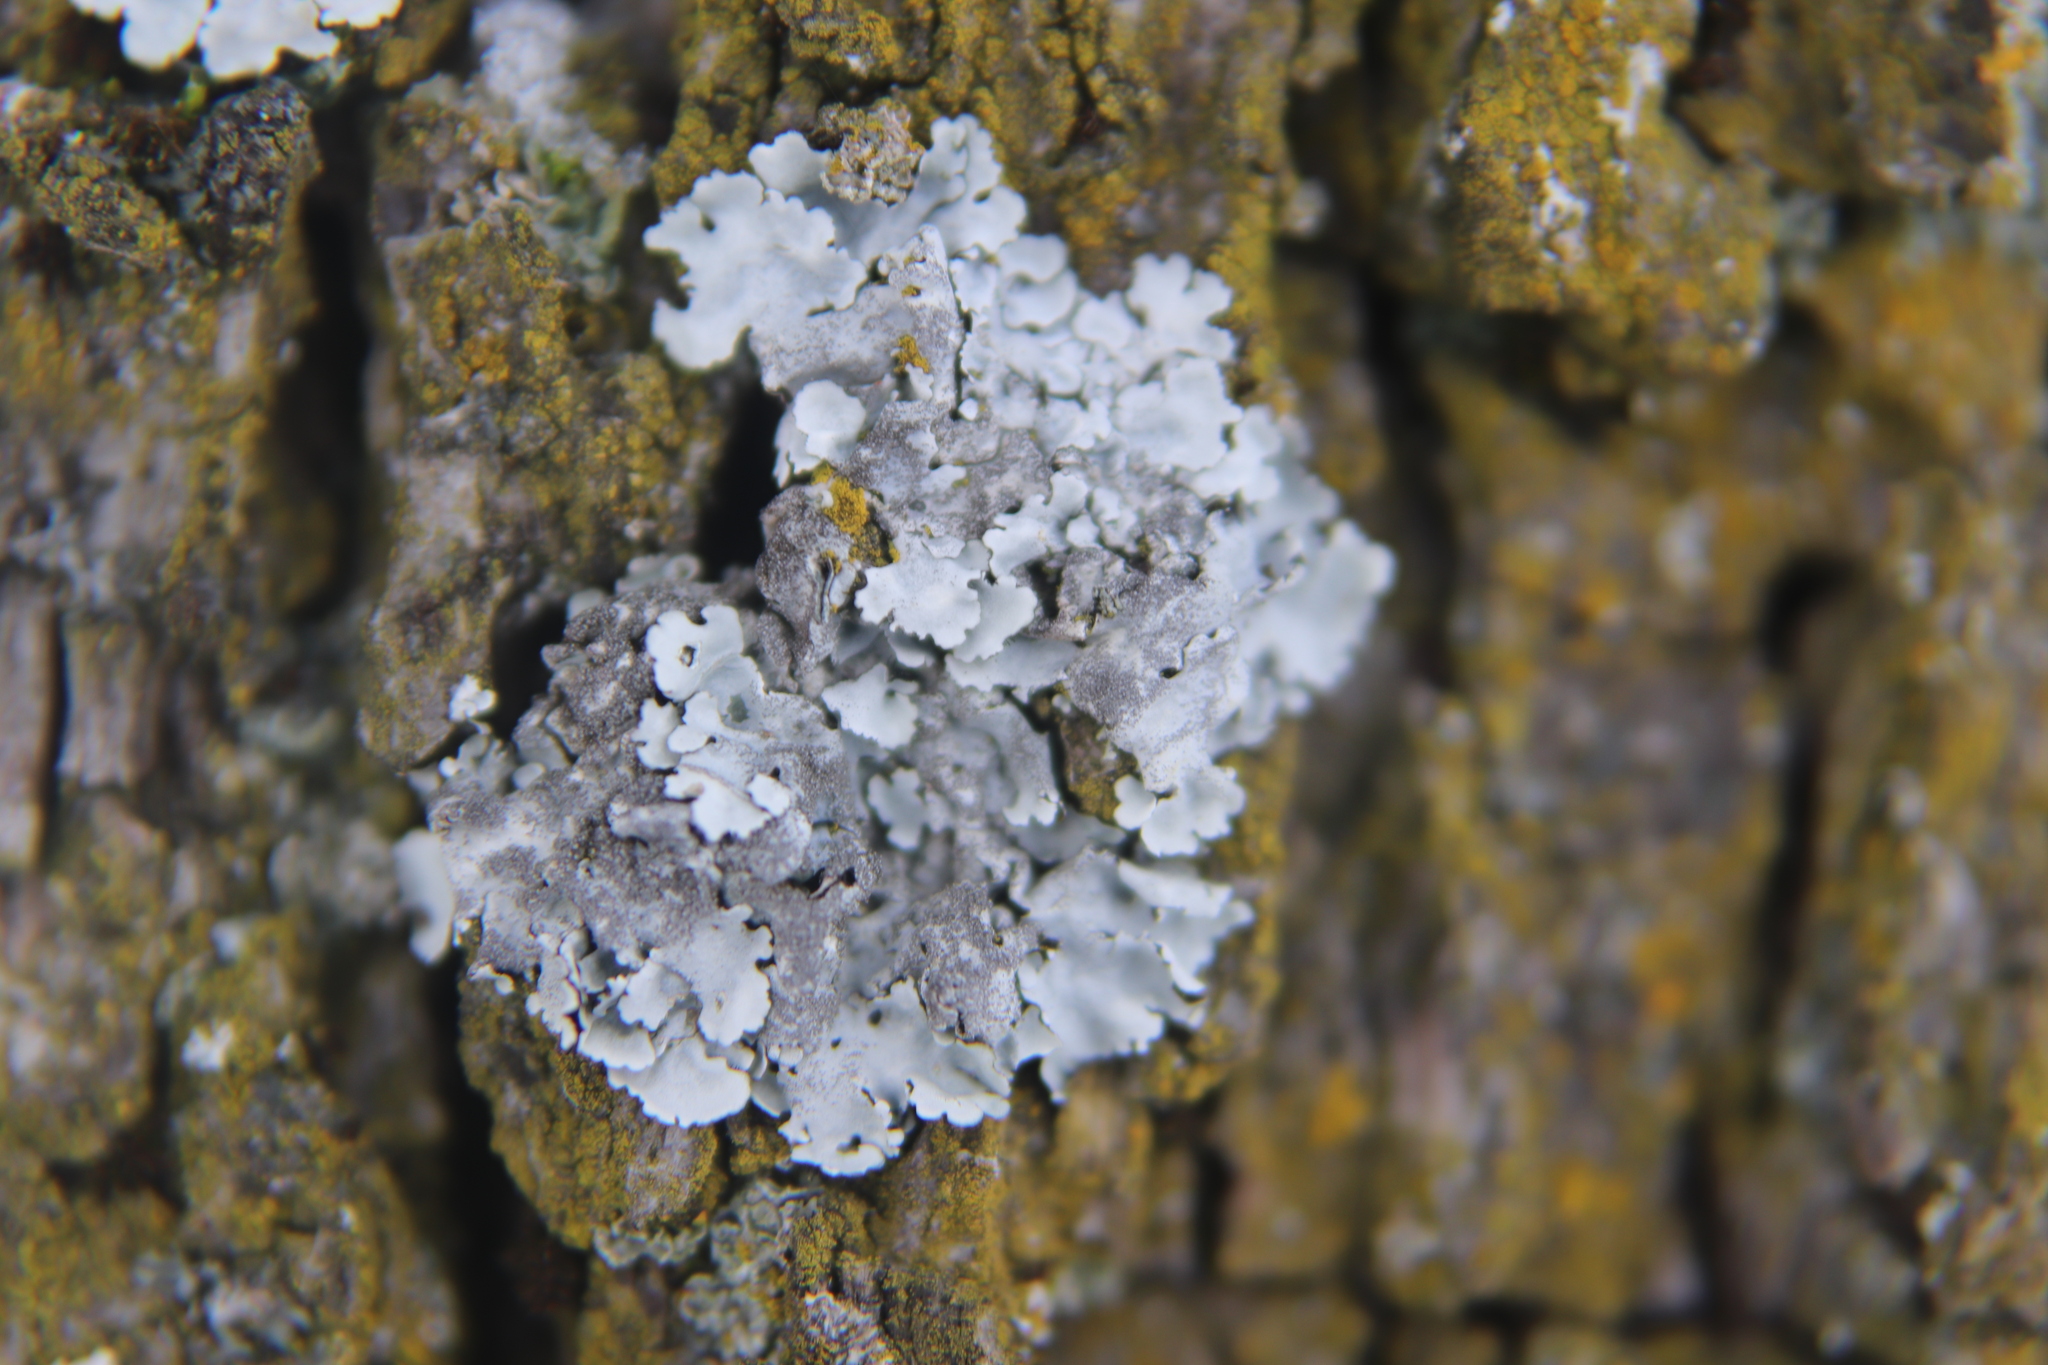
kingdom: Fungi
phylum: Ascomycota
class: Lecanoromycetes
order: Lecanorales
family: Parmeliaceae
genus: Parmelina
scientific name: Parmelina tiliacea
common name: Linden shield lichen
